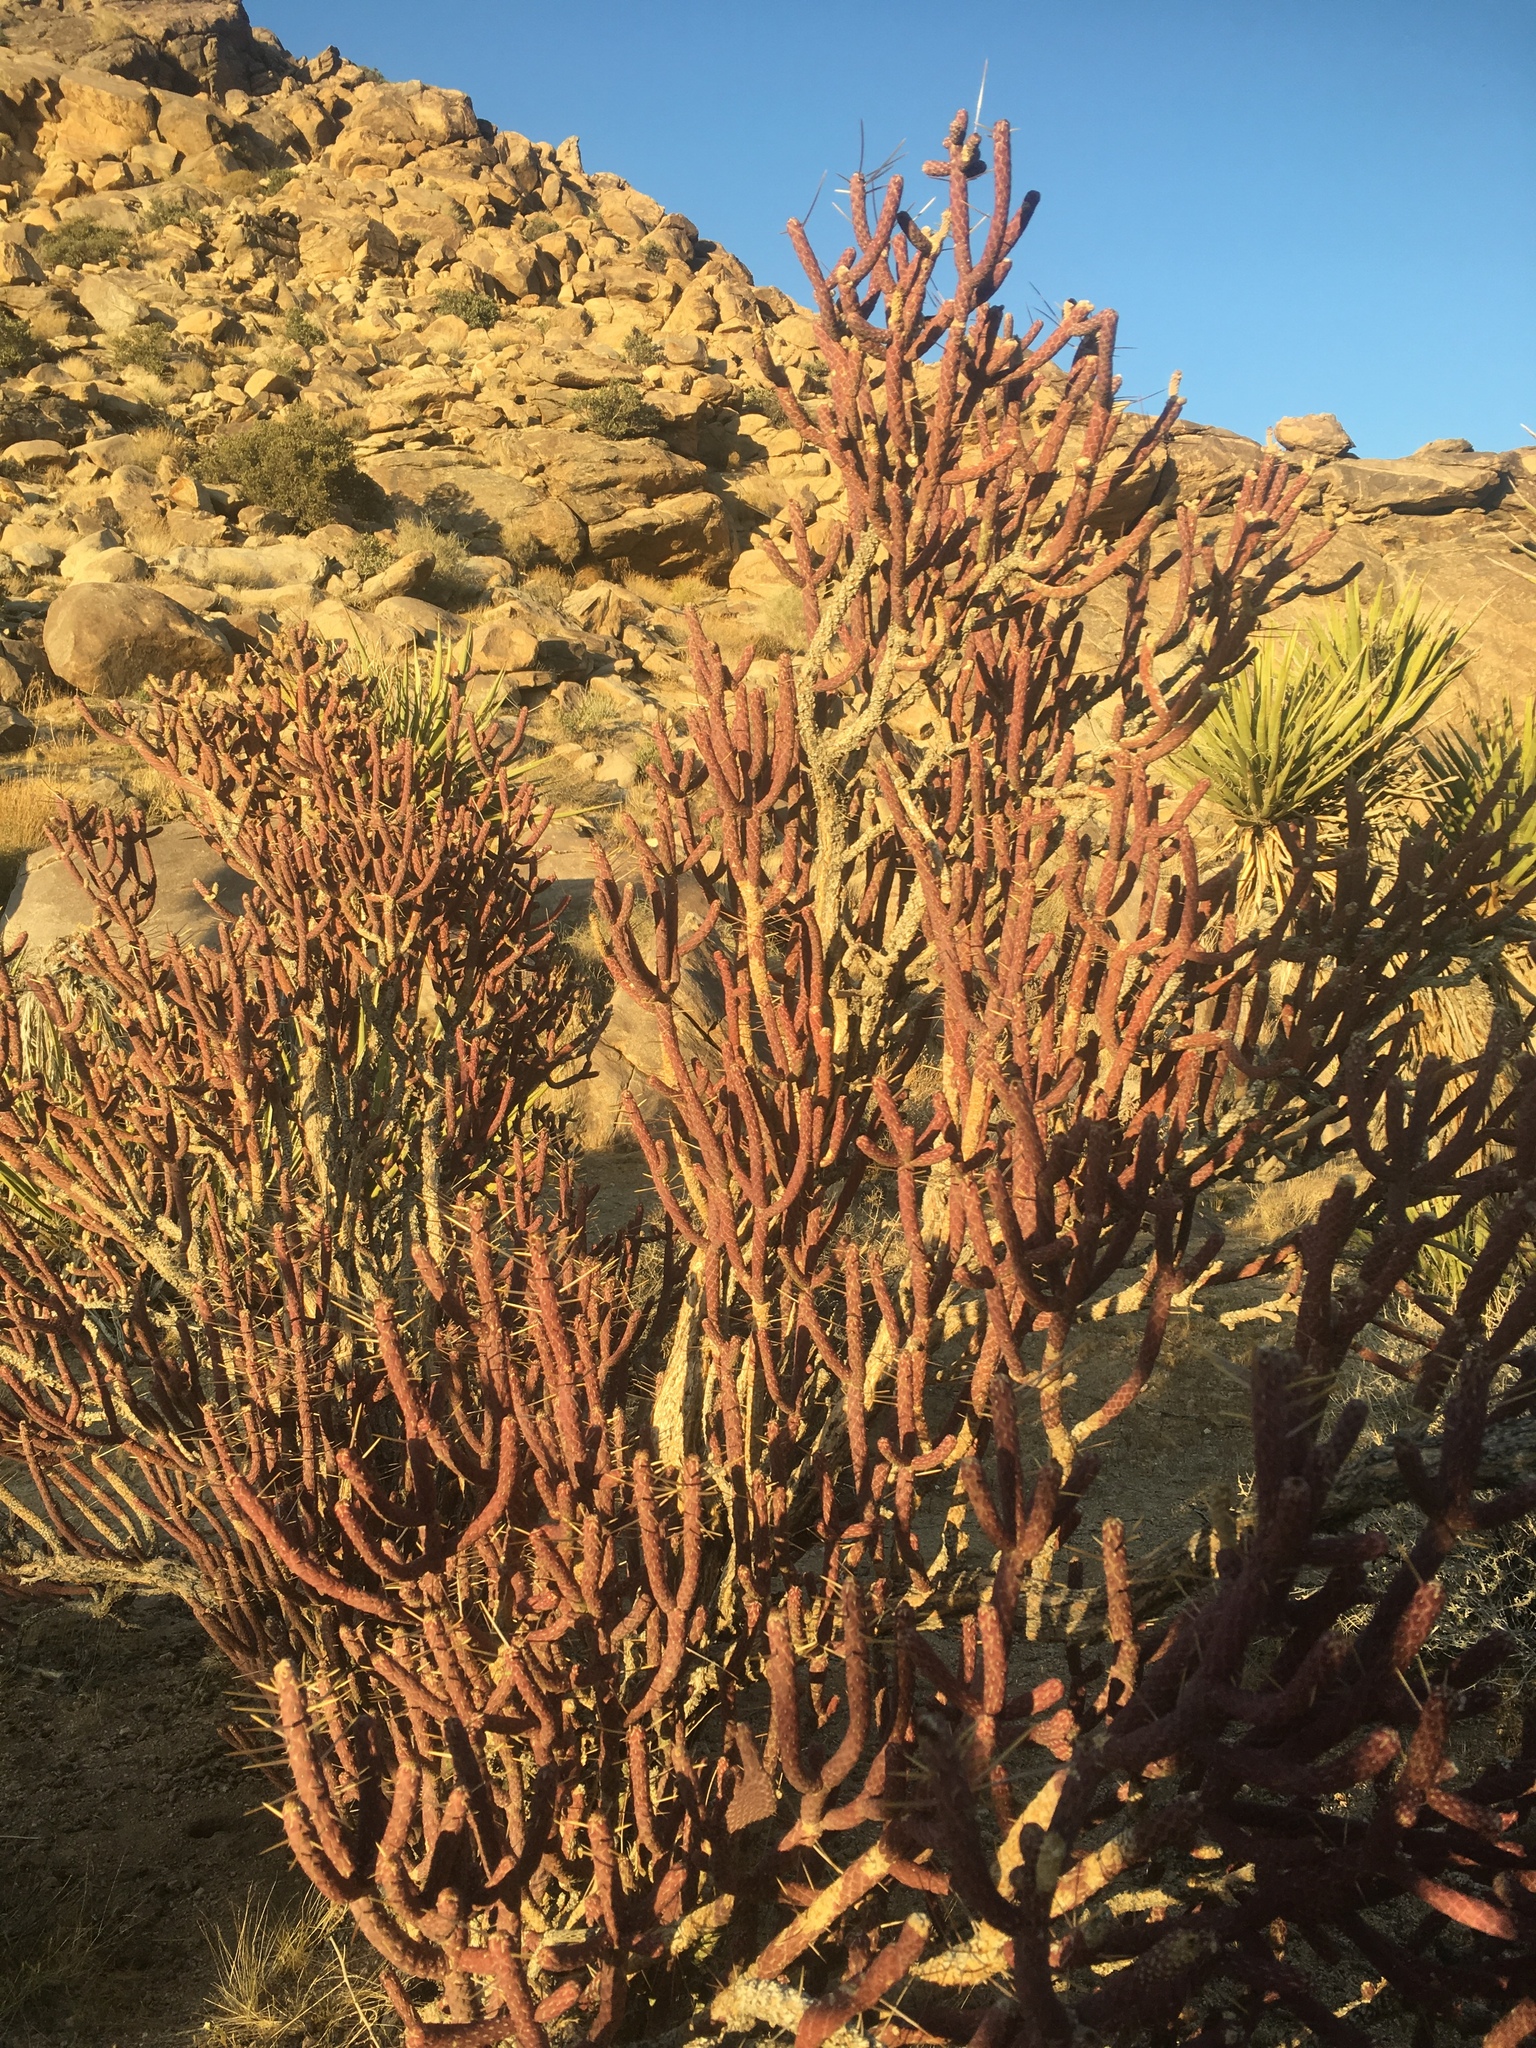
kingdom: Plantae
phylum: Tracheophyta
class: Magnoliopsida
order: Caryophyllales
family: Cactaceae
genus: Cylindropuntia
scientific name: Cylindropuntia ramosissima
